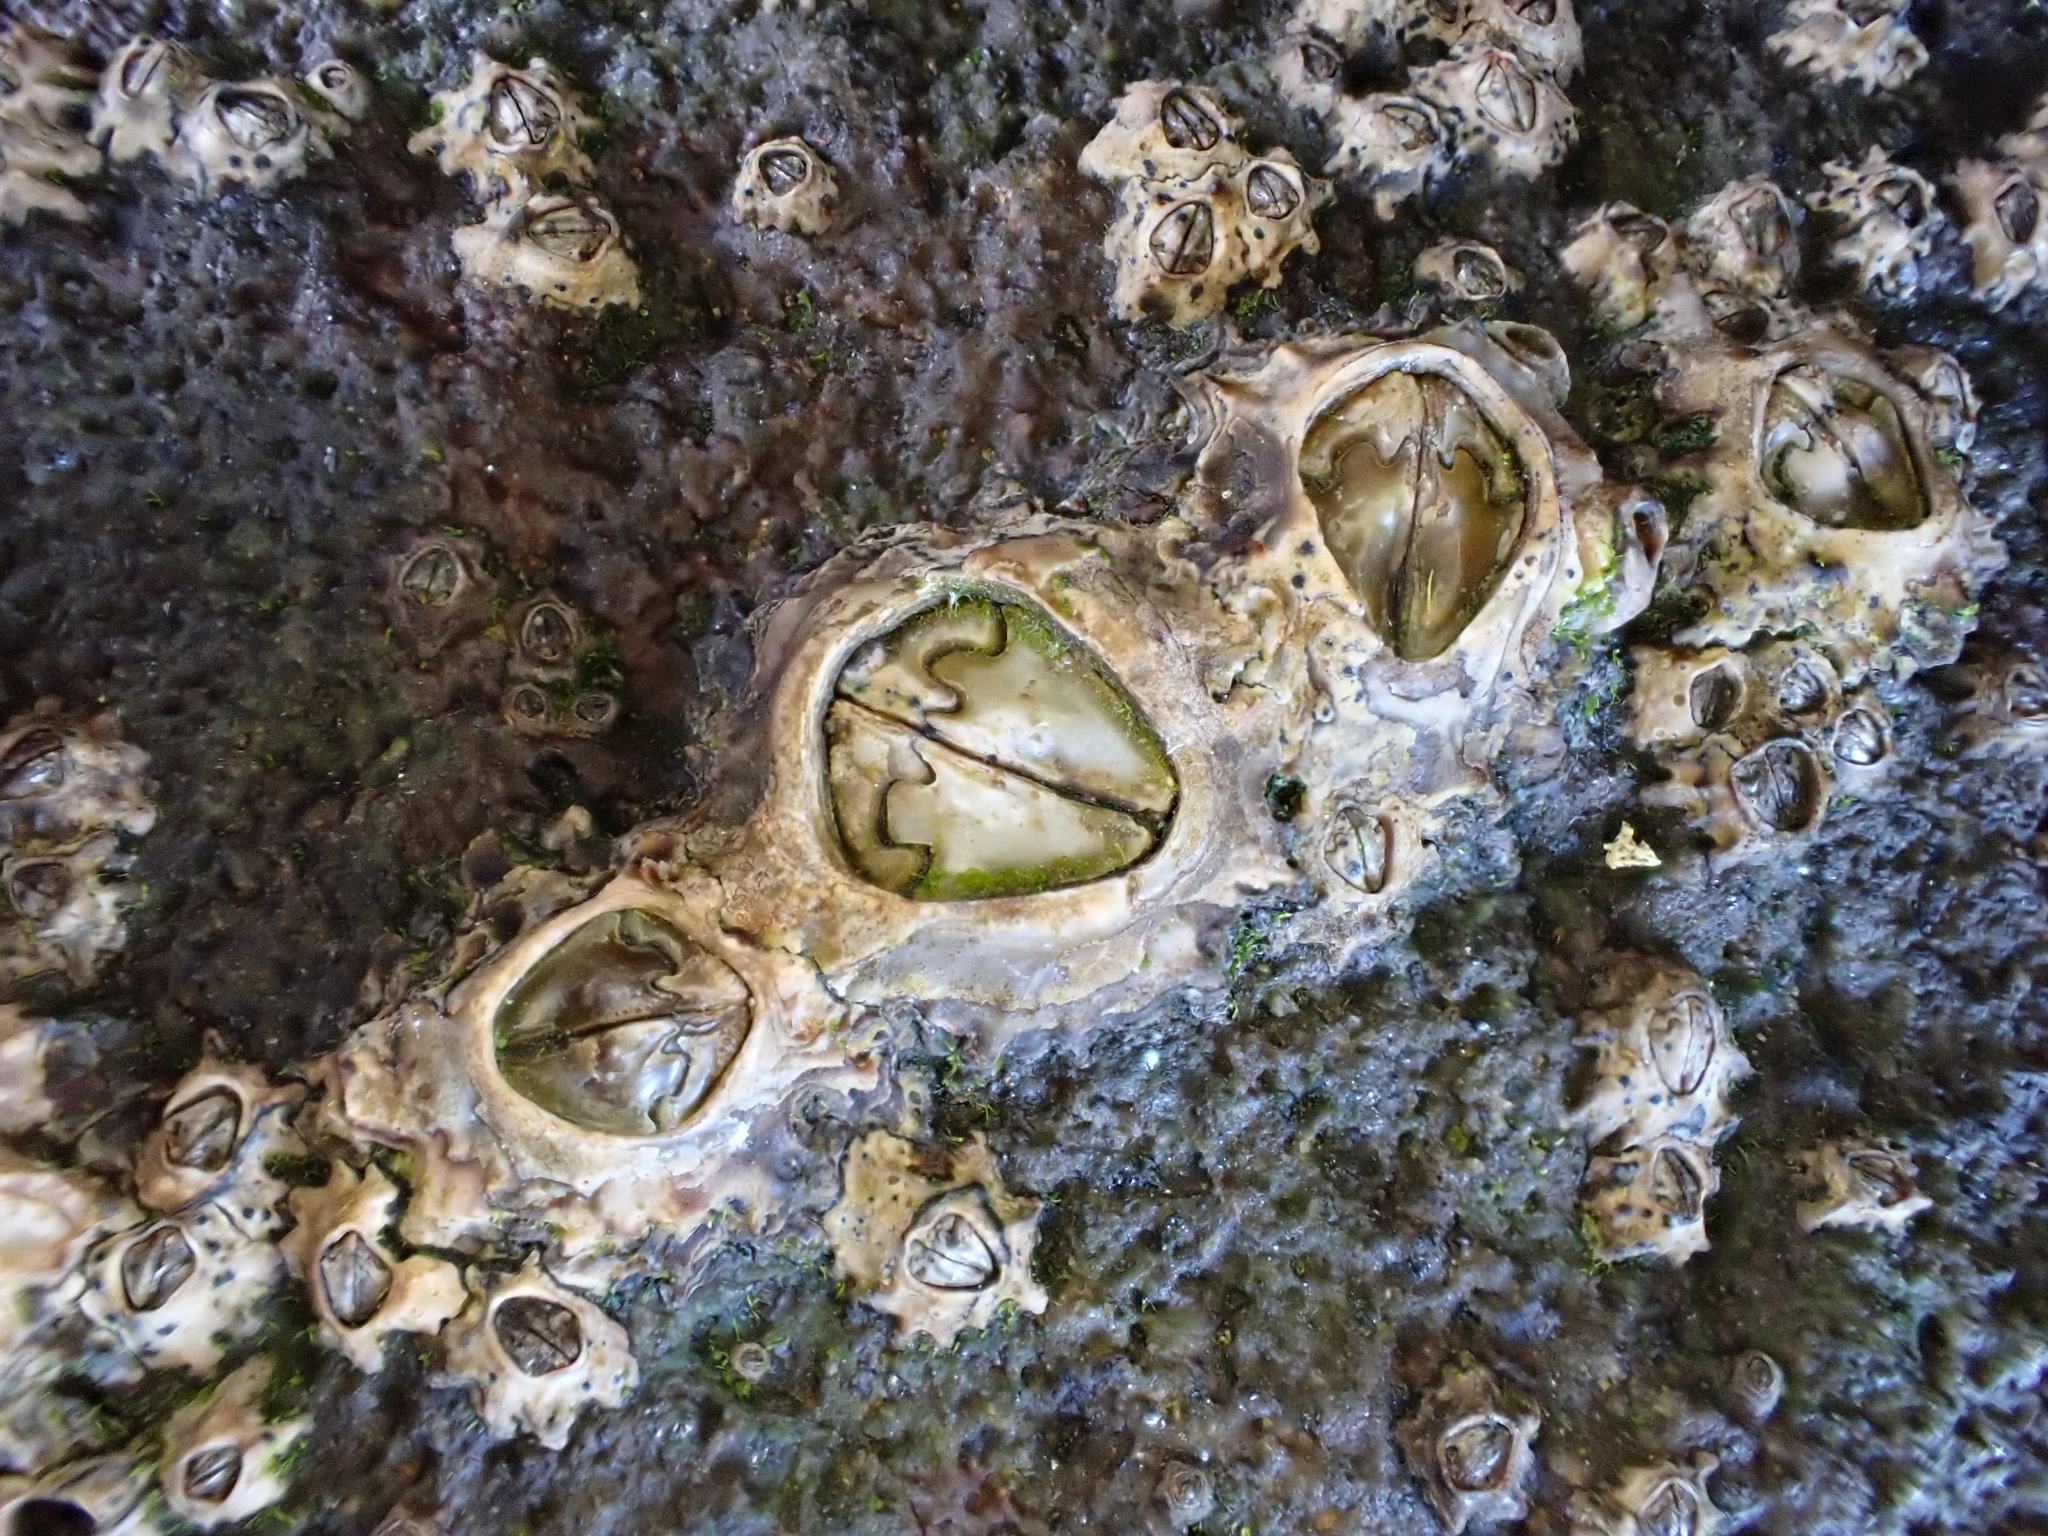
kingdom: Animalia
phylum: Arthropoda
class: Maxillopoda
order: Sessilia
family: Chthamalidae
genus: Chamaesipho
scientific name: Chamaesipho brunnea
